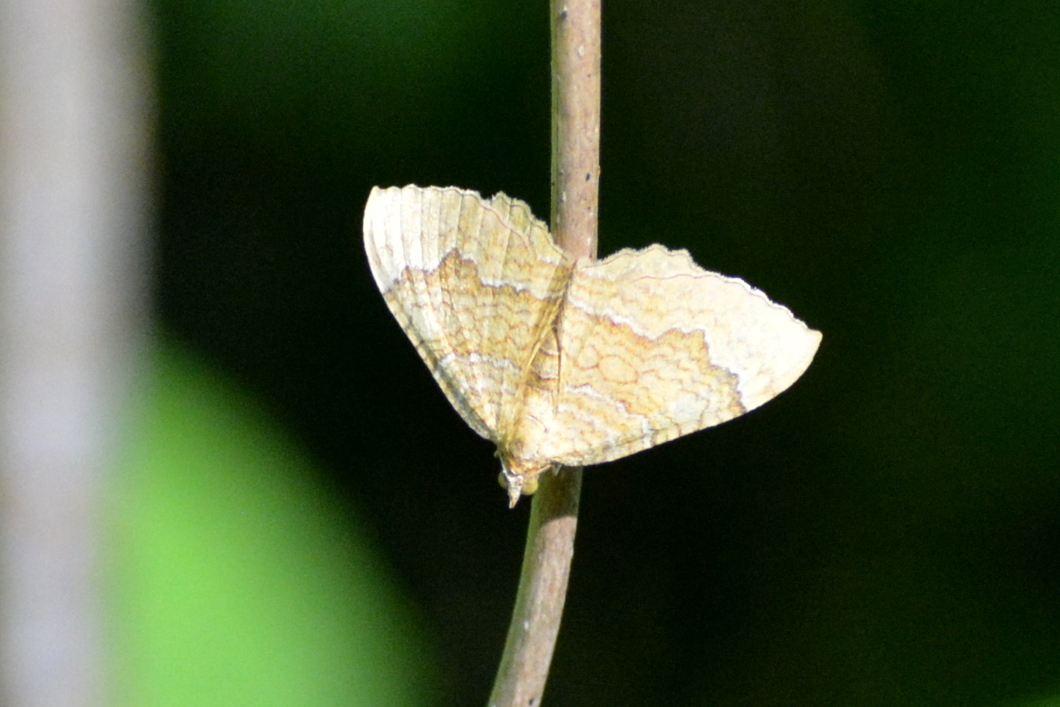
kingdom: Animalia
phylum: Arthropoda
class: Insecta
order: Lepidoptera
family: Geometridae
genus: Camptogramma
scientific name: Camptogramma bilineata
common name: Yellow shell
